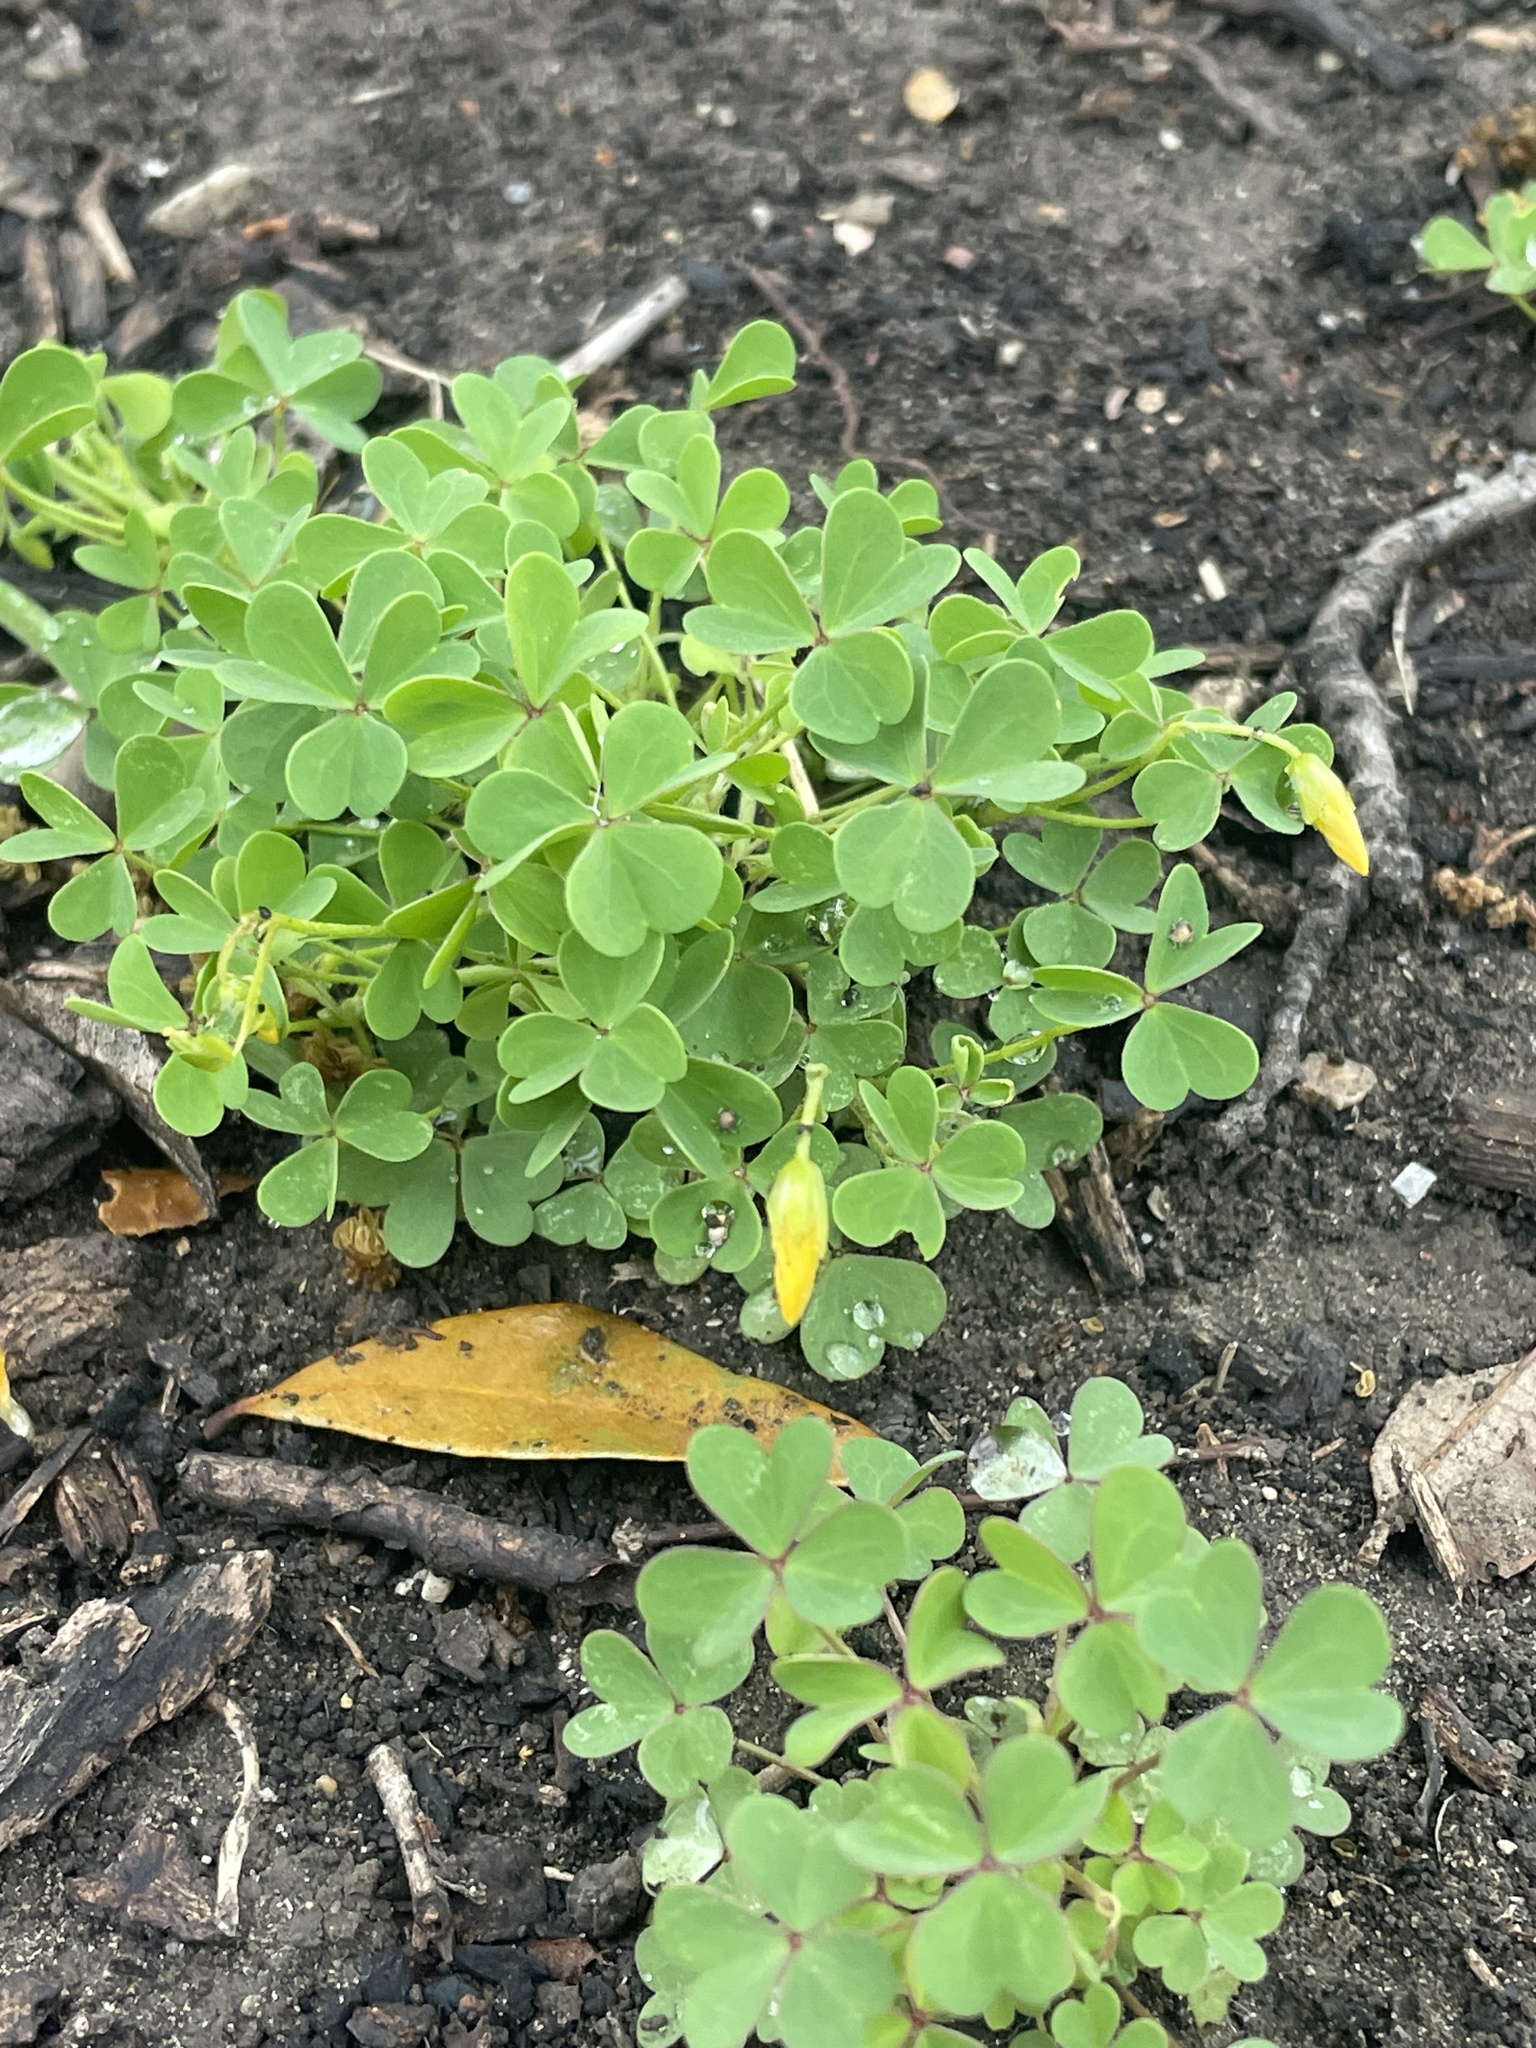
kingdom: Plantae
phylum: Tracheophyta
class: Magnoliopsida
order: Oxalidales
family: Oxalidaceae
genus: Oxalis
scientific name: Oxalis dillenii
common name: Sussex yellow-sorrel
